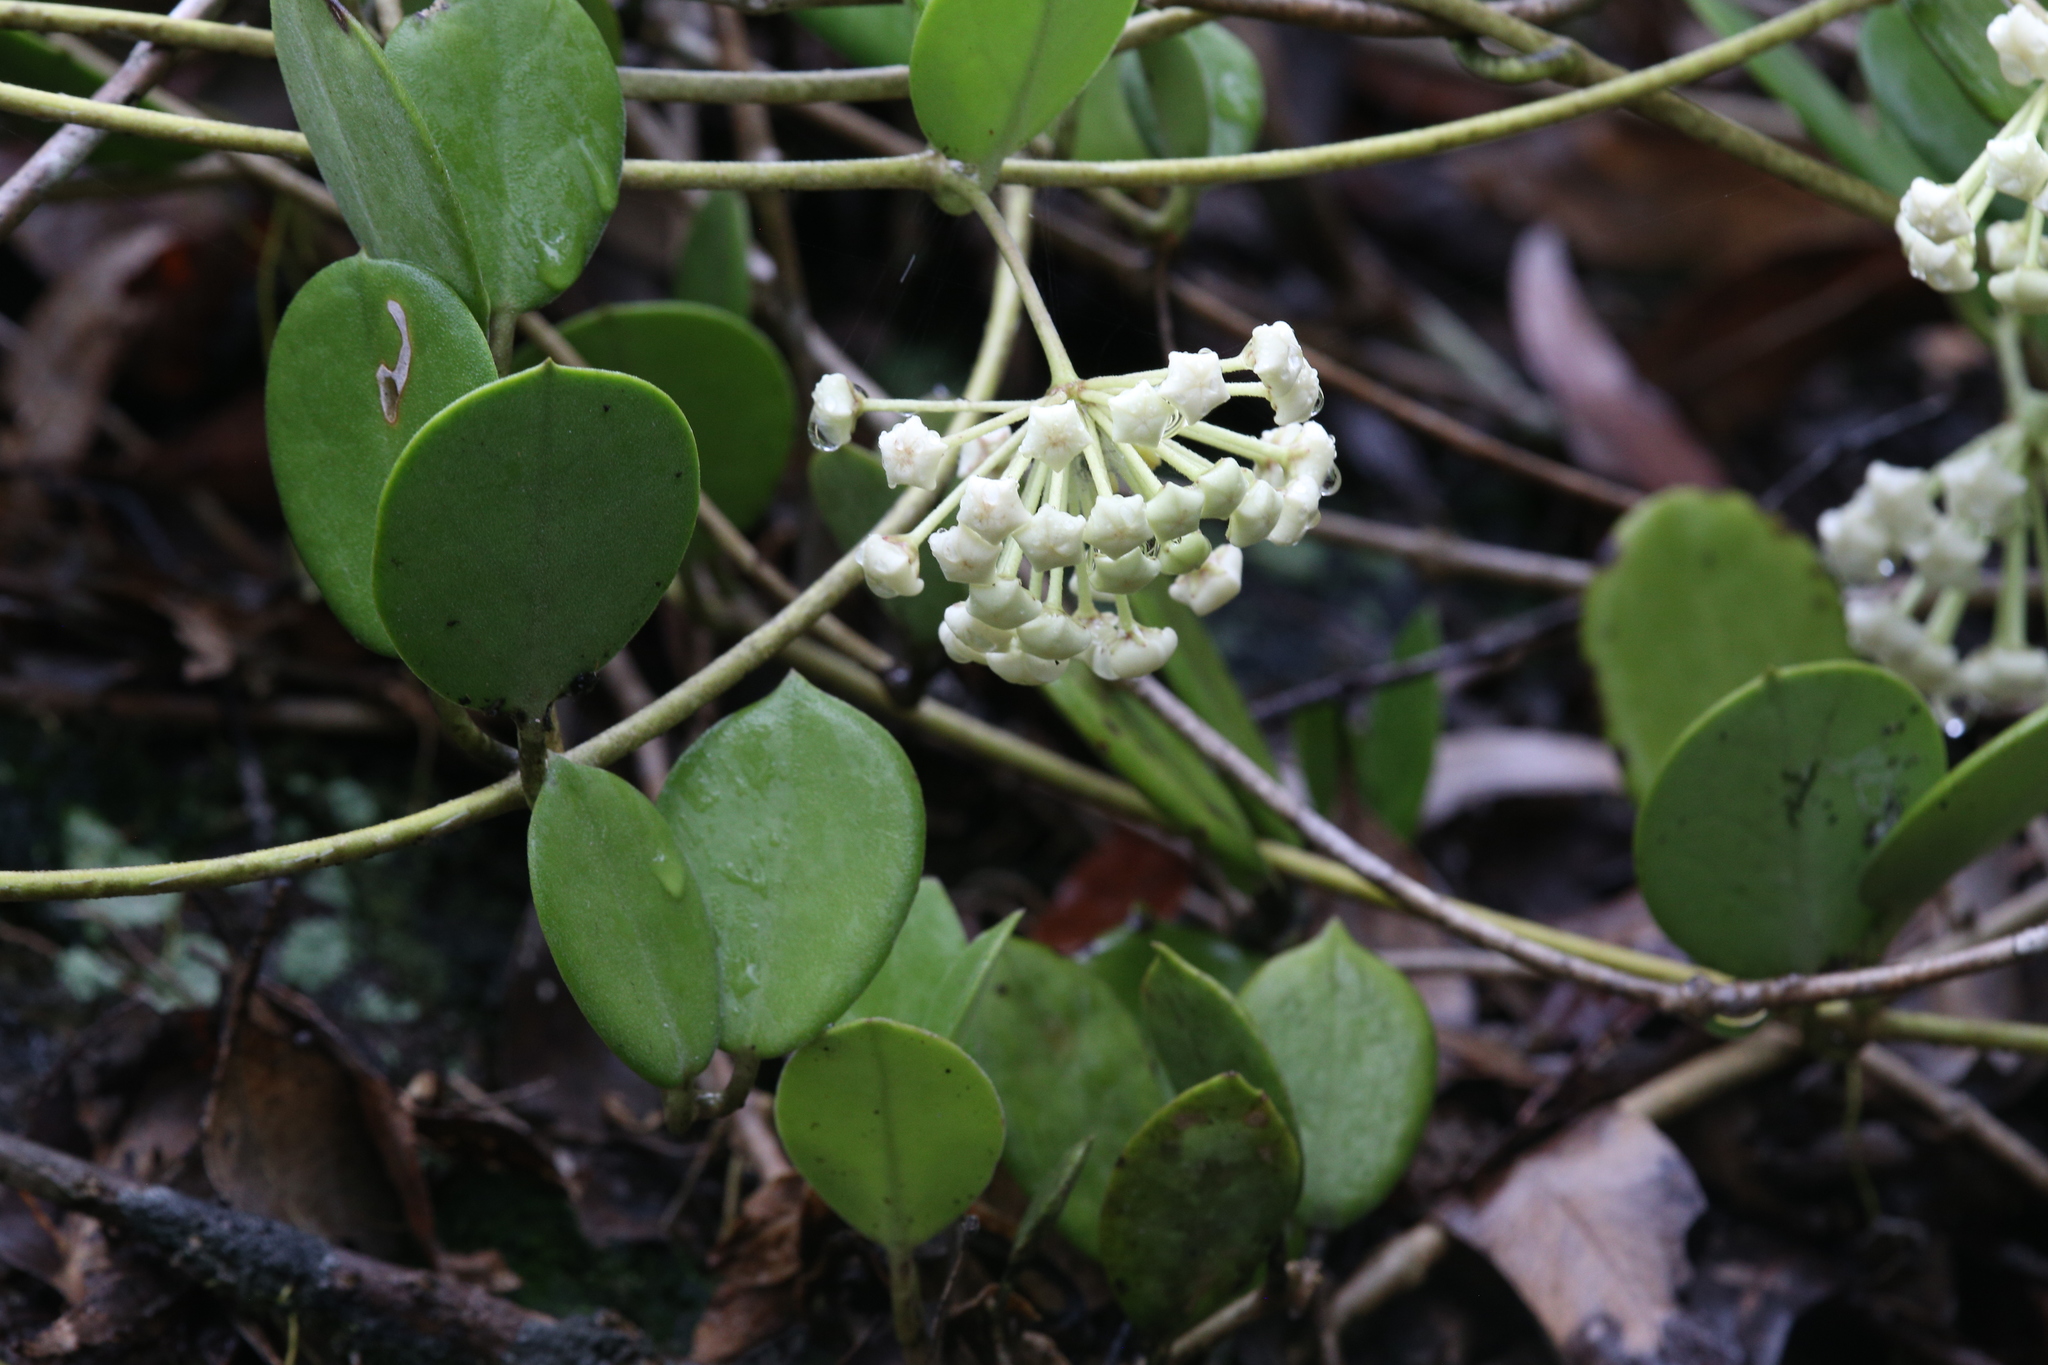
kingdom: Plantae
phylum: Tracheophyta
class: Magnoliopsida
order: Gentianales
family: Apocynaceae
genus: Hoya
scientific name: Hoya australis
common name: Wax flower
